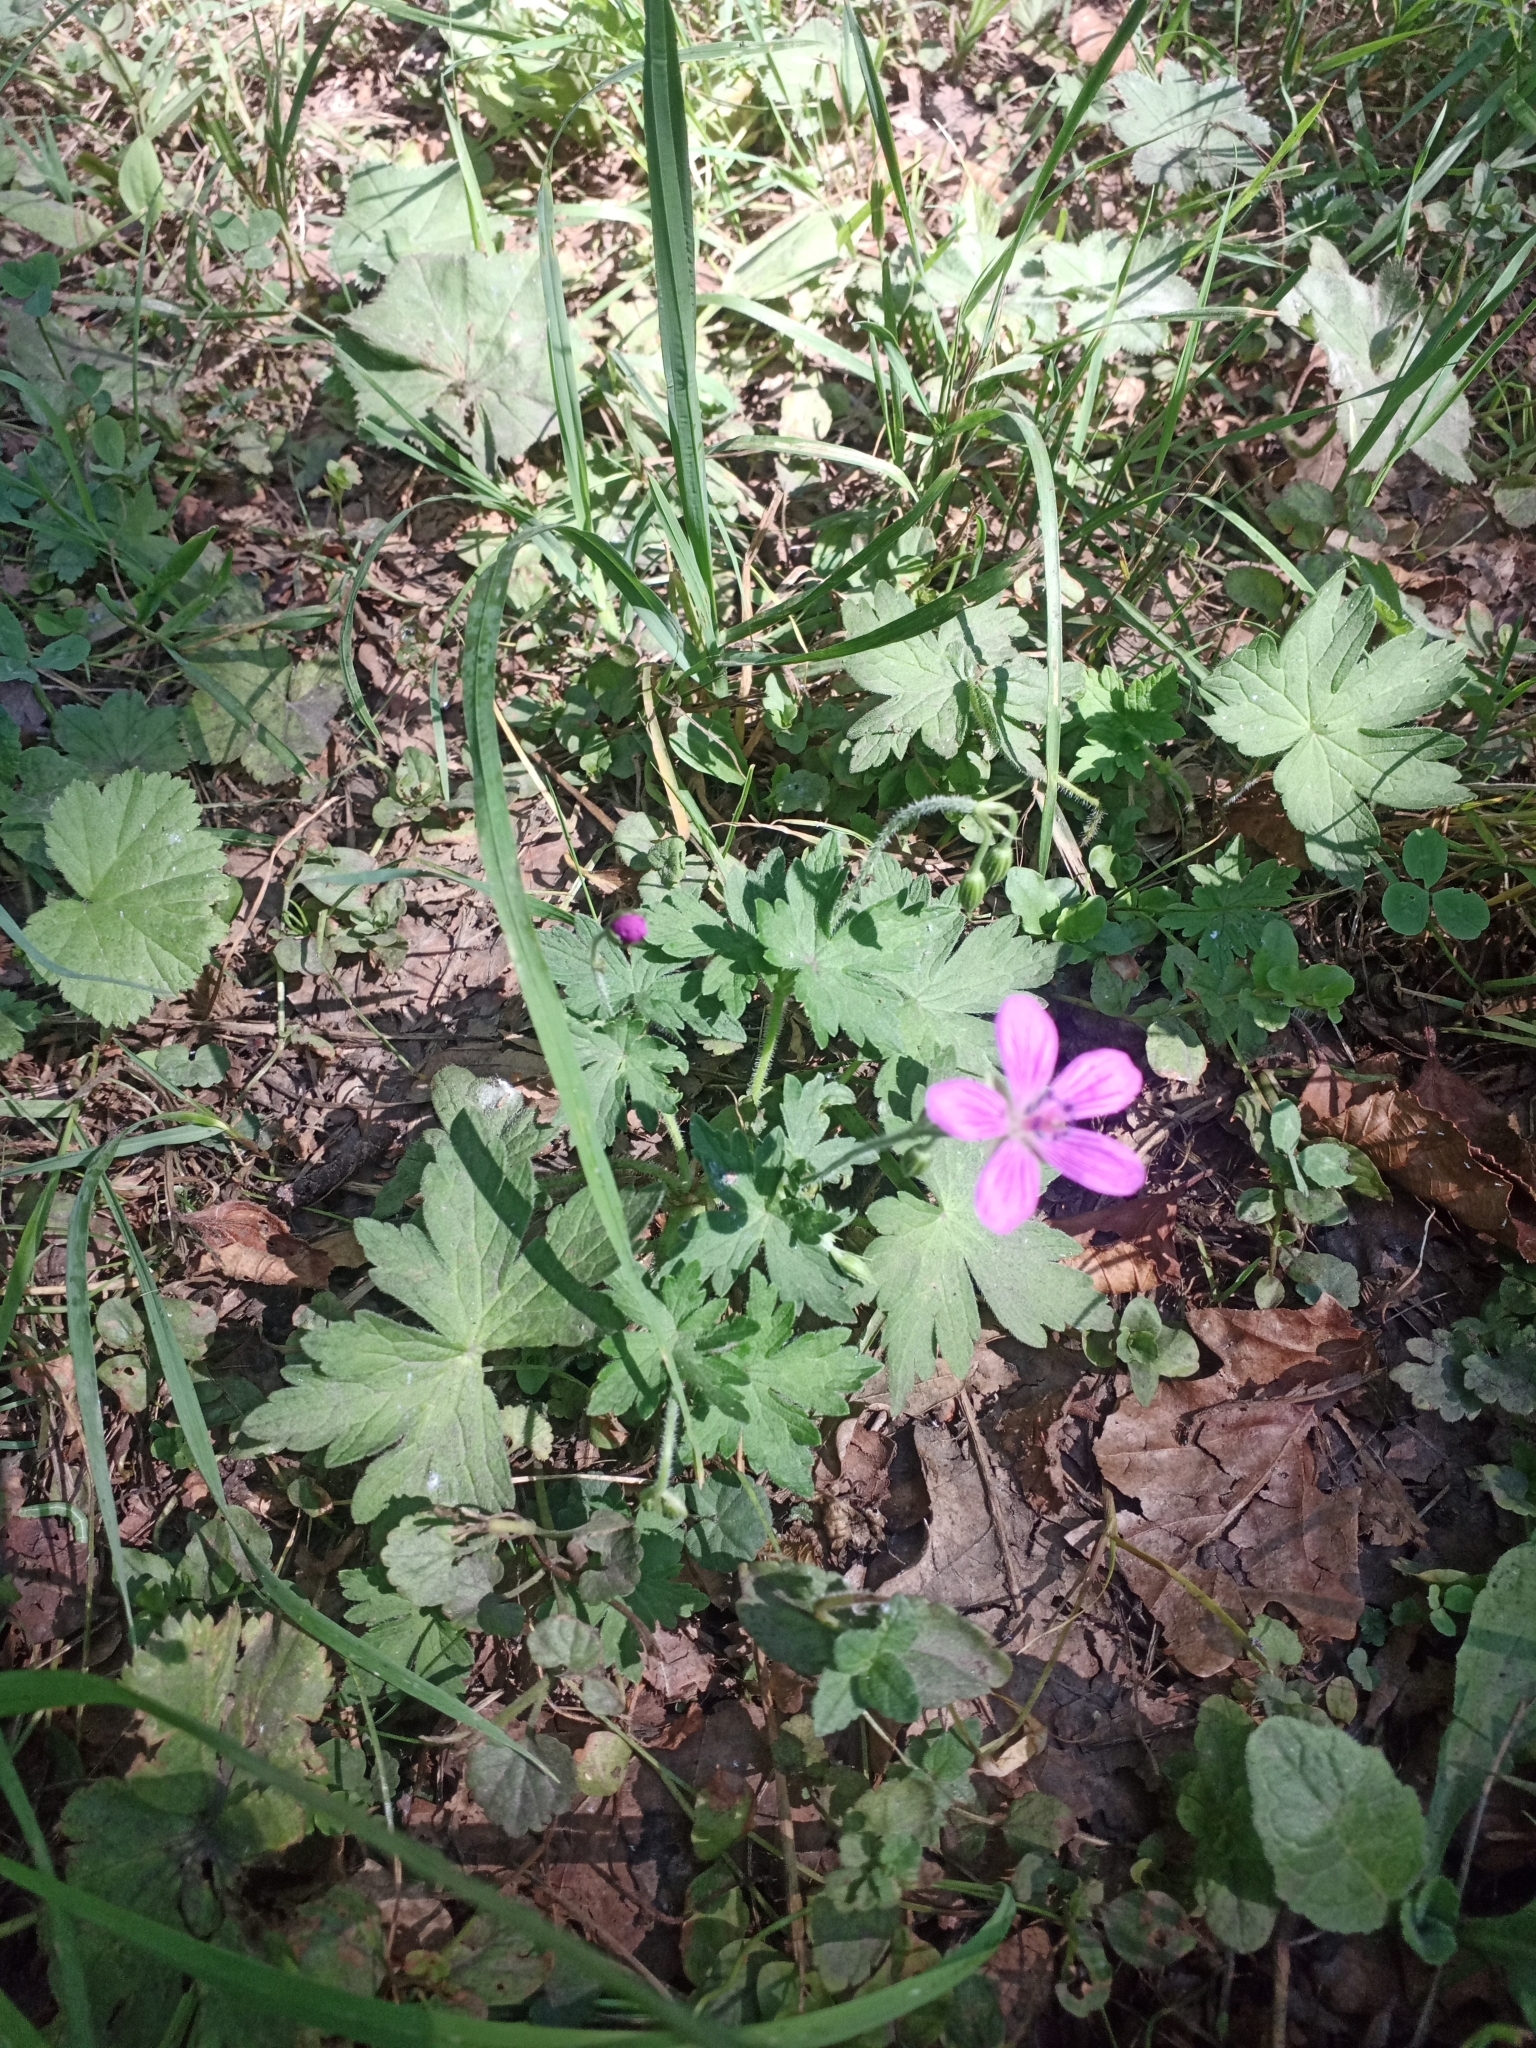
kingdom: Plantae
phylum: Tracheophyta
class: Magnoliopsida
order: Geraniales
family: Geraniaceae
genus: Geranium
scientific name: Geranium palustre
